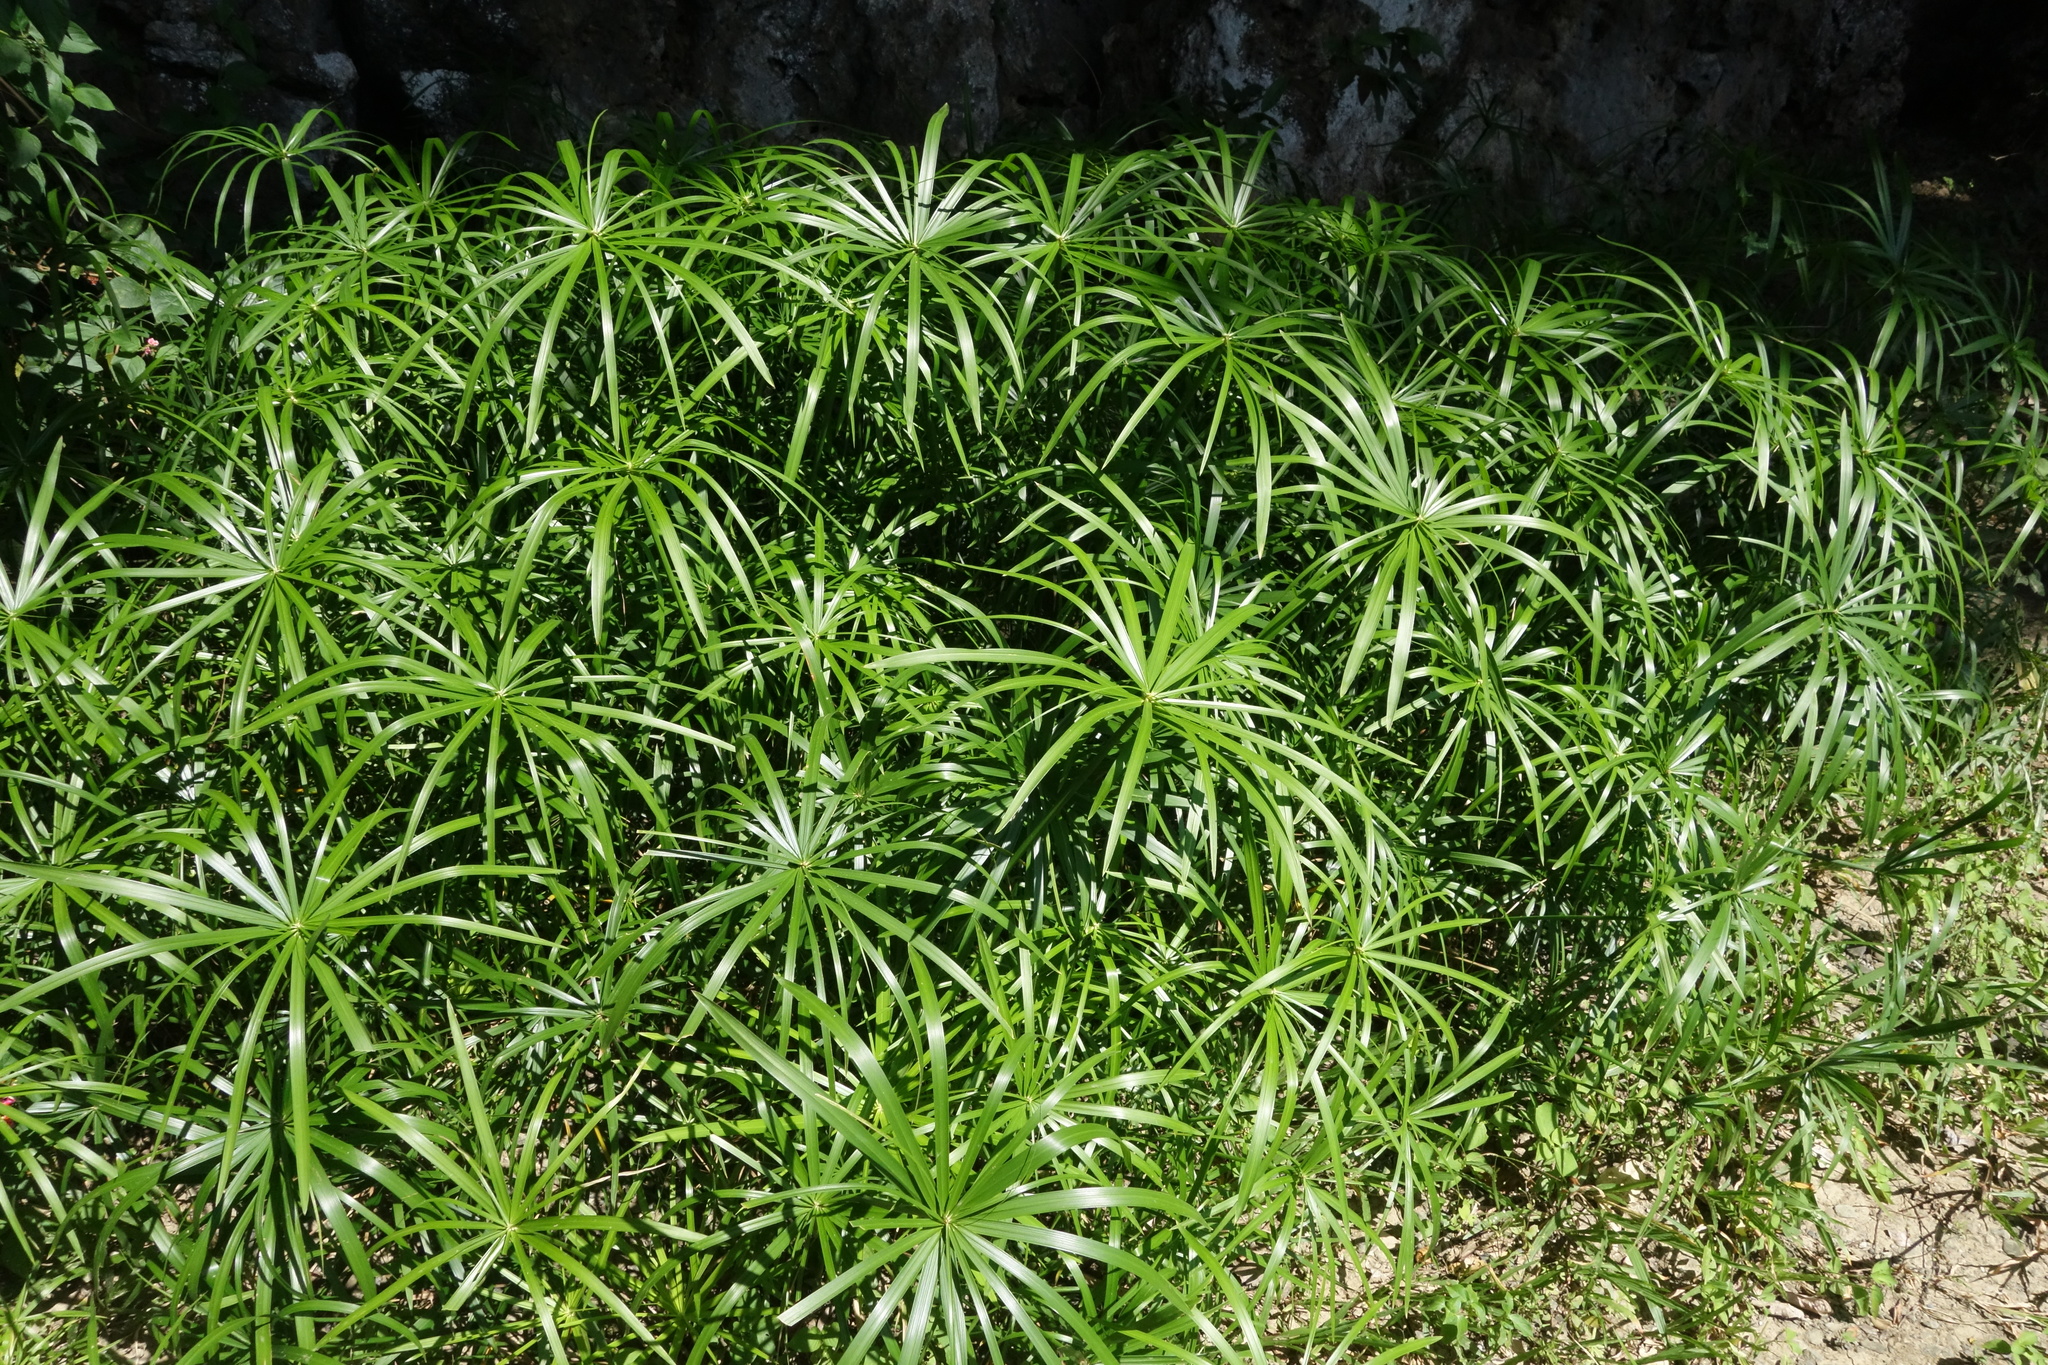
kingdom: Plantae
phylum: Tracheophyta
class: Liliopsida
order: Poales
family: Cyperaceae
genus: Cyperus
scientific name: Cyperus alternifolius
